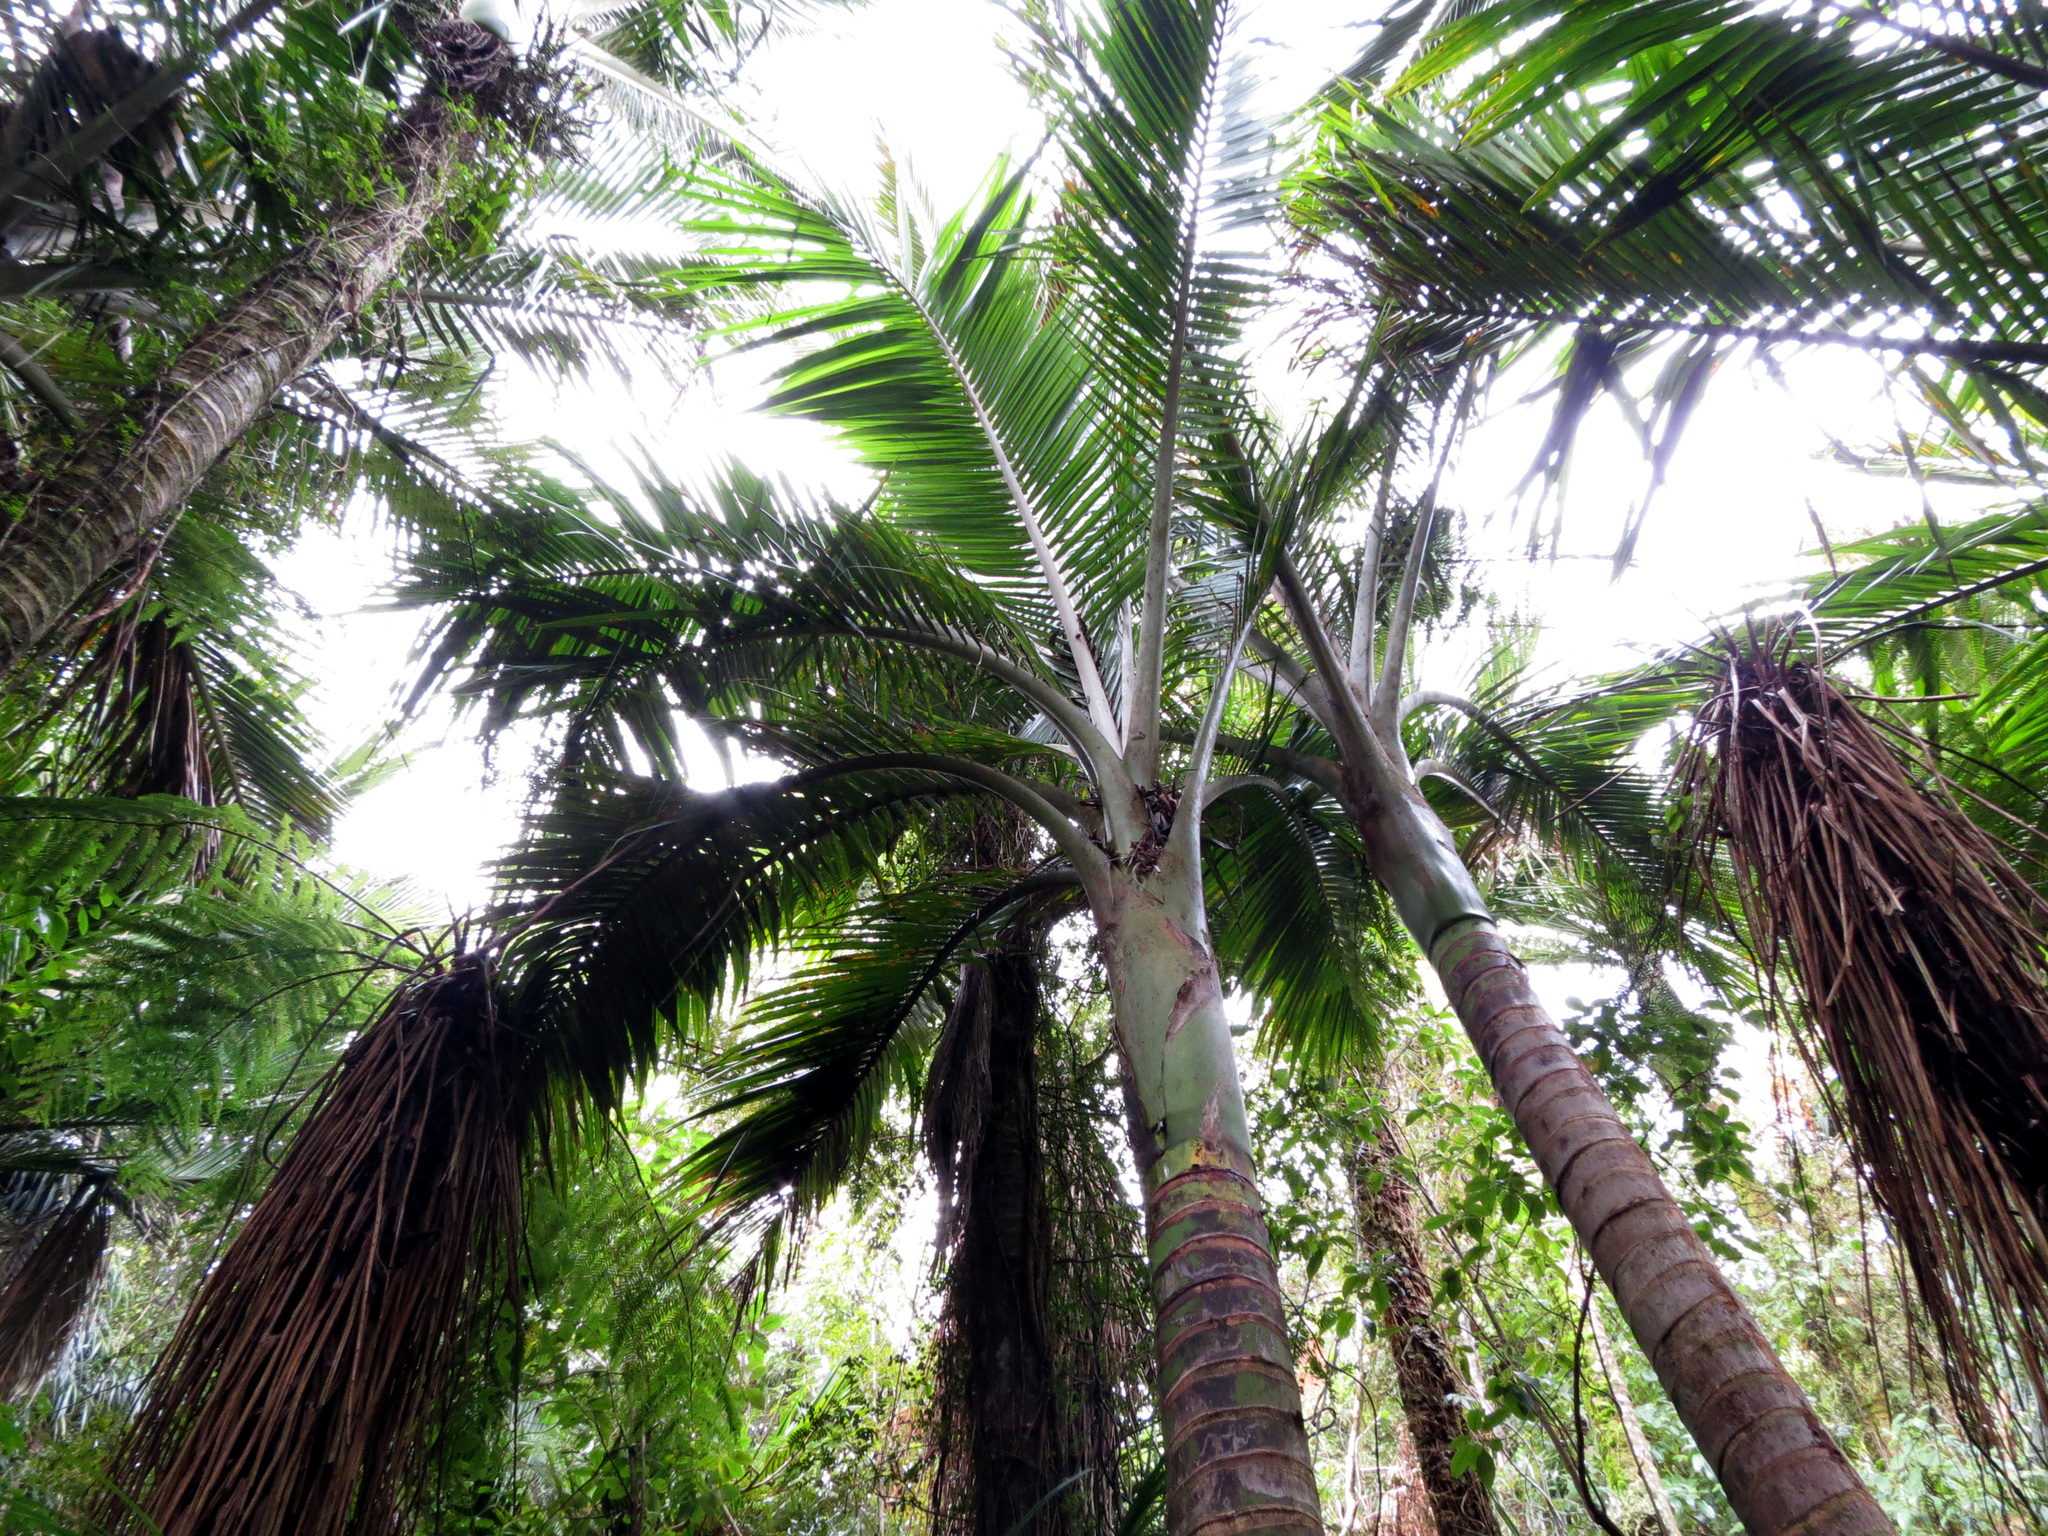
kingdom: Plantae
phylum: Tracheophyta
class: Liliopsida
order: Arecales
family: Arecaceae
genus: Rhopalostylis
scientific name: Rhopalostylis sapida
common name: Feather-duster palm
